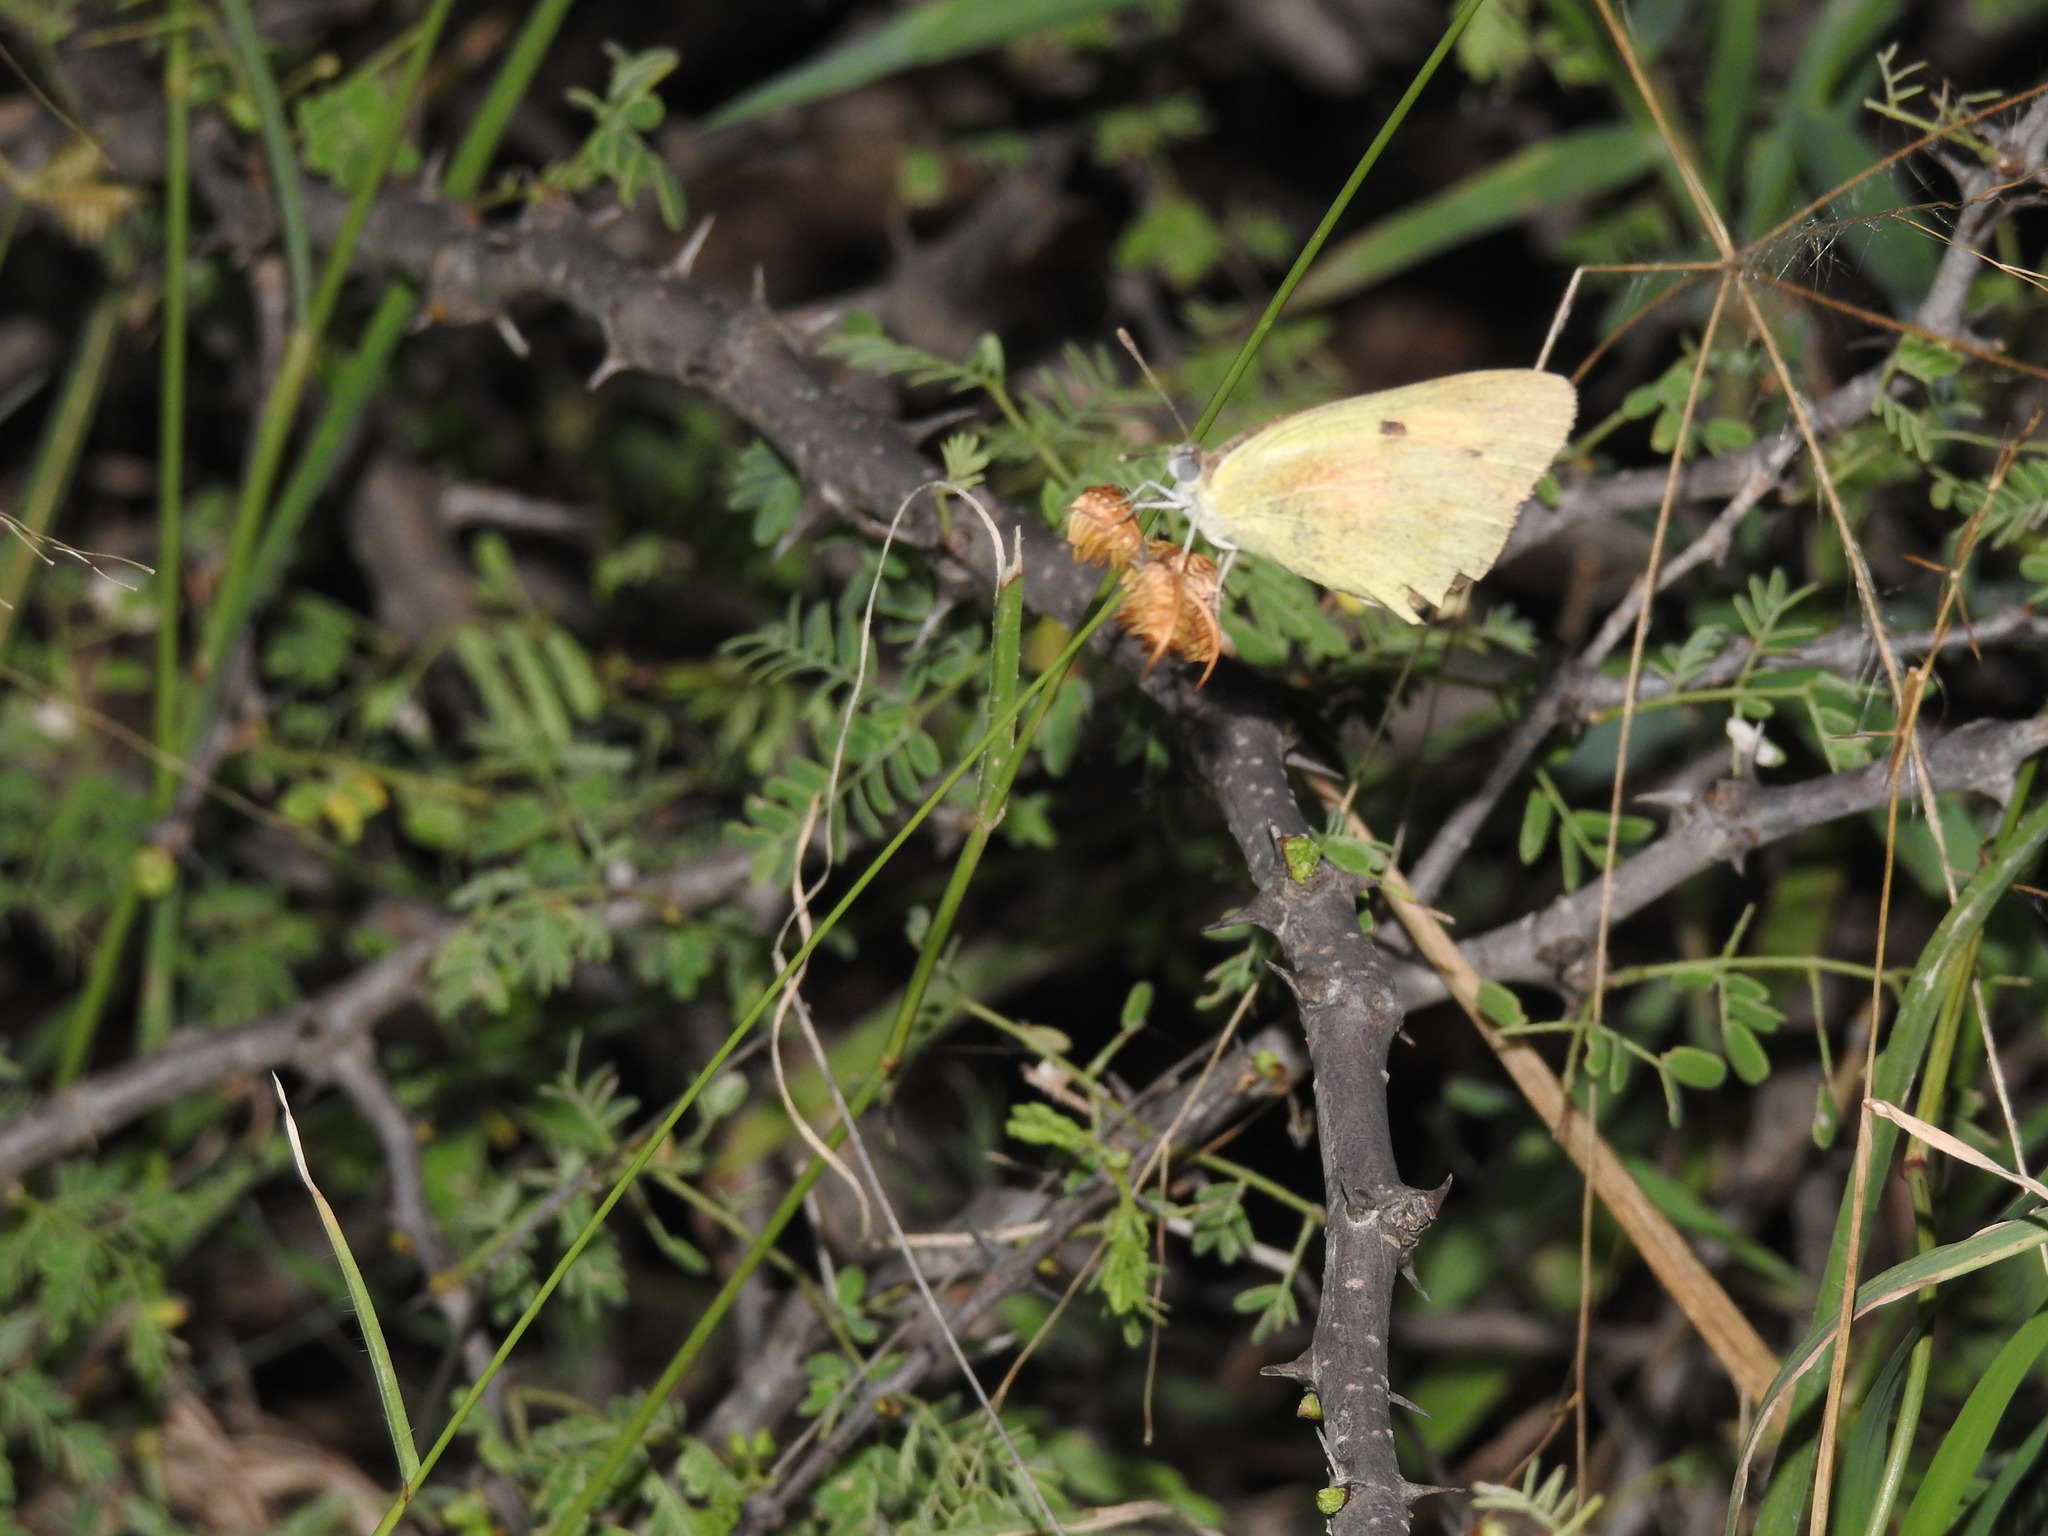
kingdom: Animalia
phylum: Arthropoda
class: Insecta
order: Lepidoptera
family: Pieridae
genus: Colotis
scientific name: Colotis amata
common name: Small salmon arab
